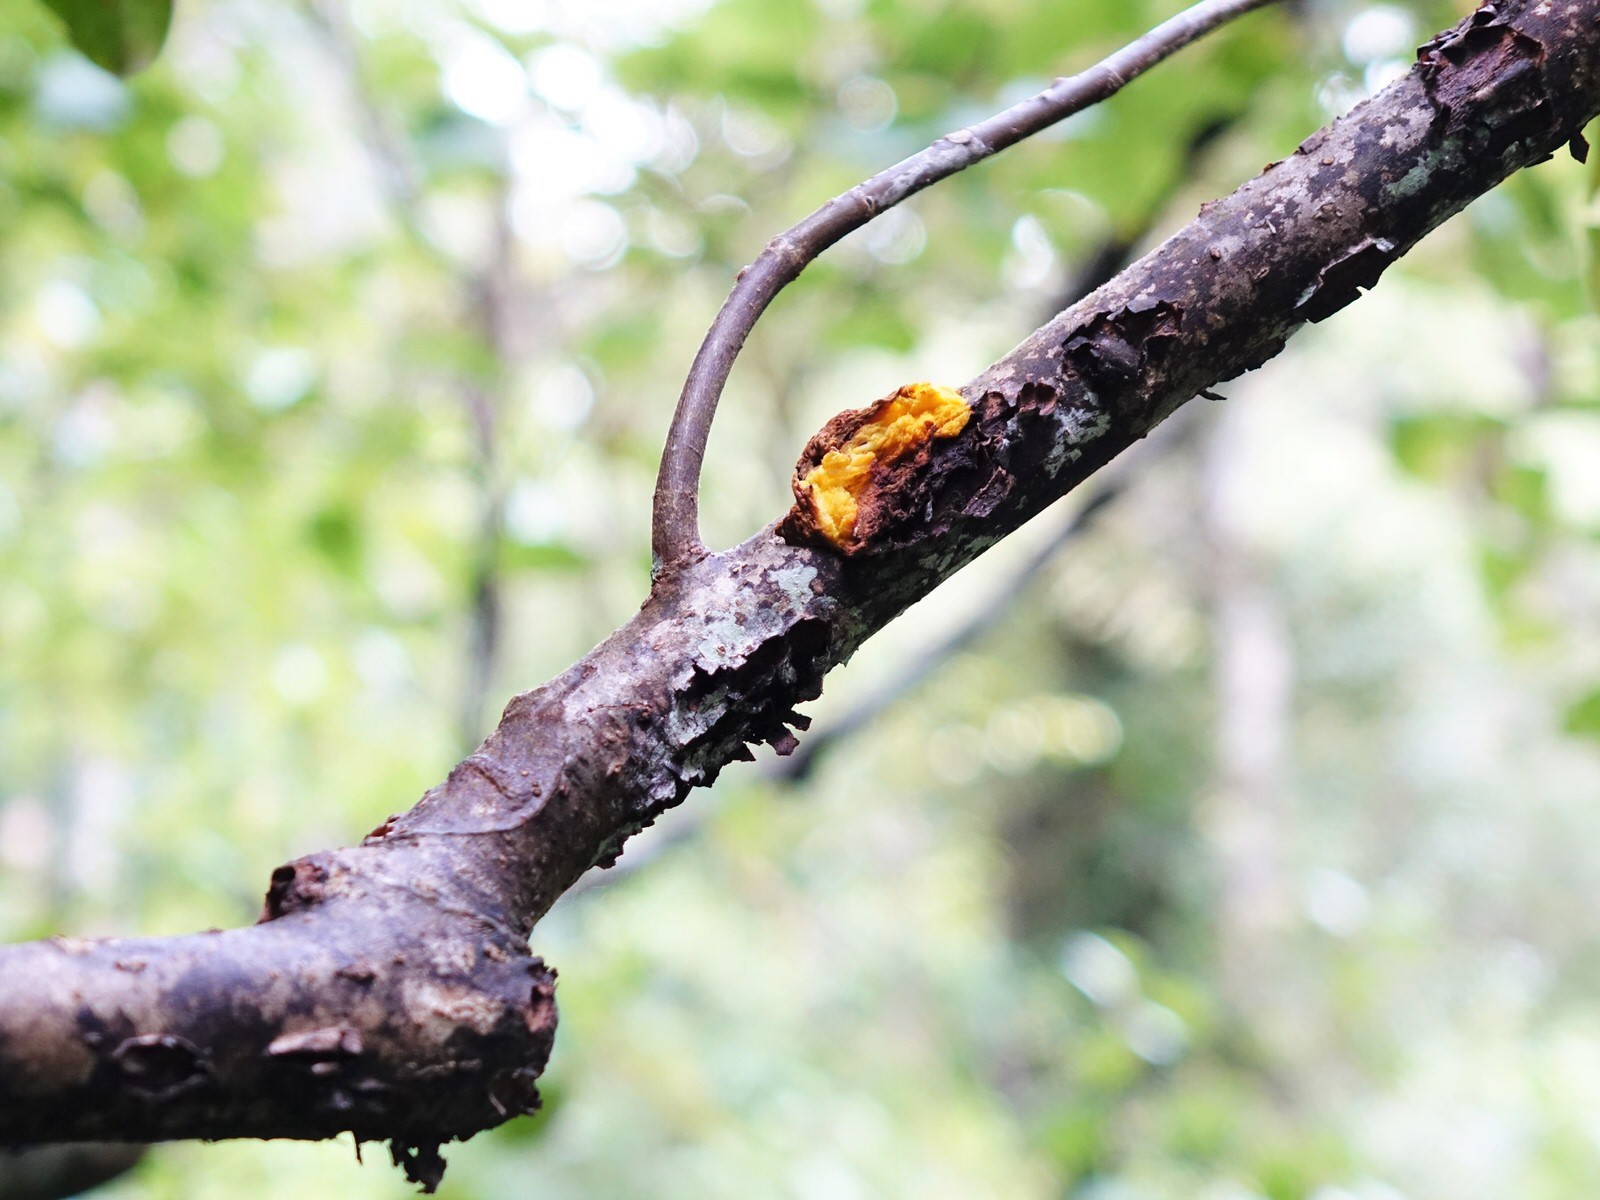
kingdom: Plantae
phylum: Tracheophyta
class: Magnoliopsida
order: Gentianales
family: Rubiaceae
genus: Coprosma
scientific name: Coprosma autumnalis
